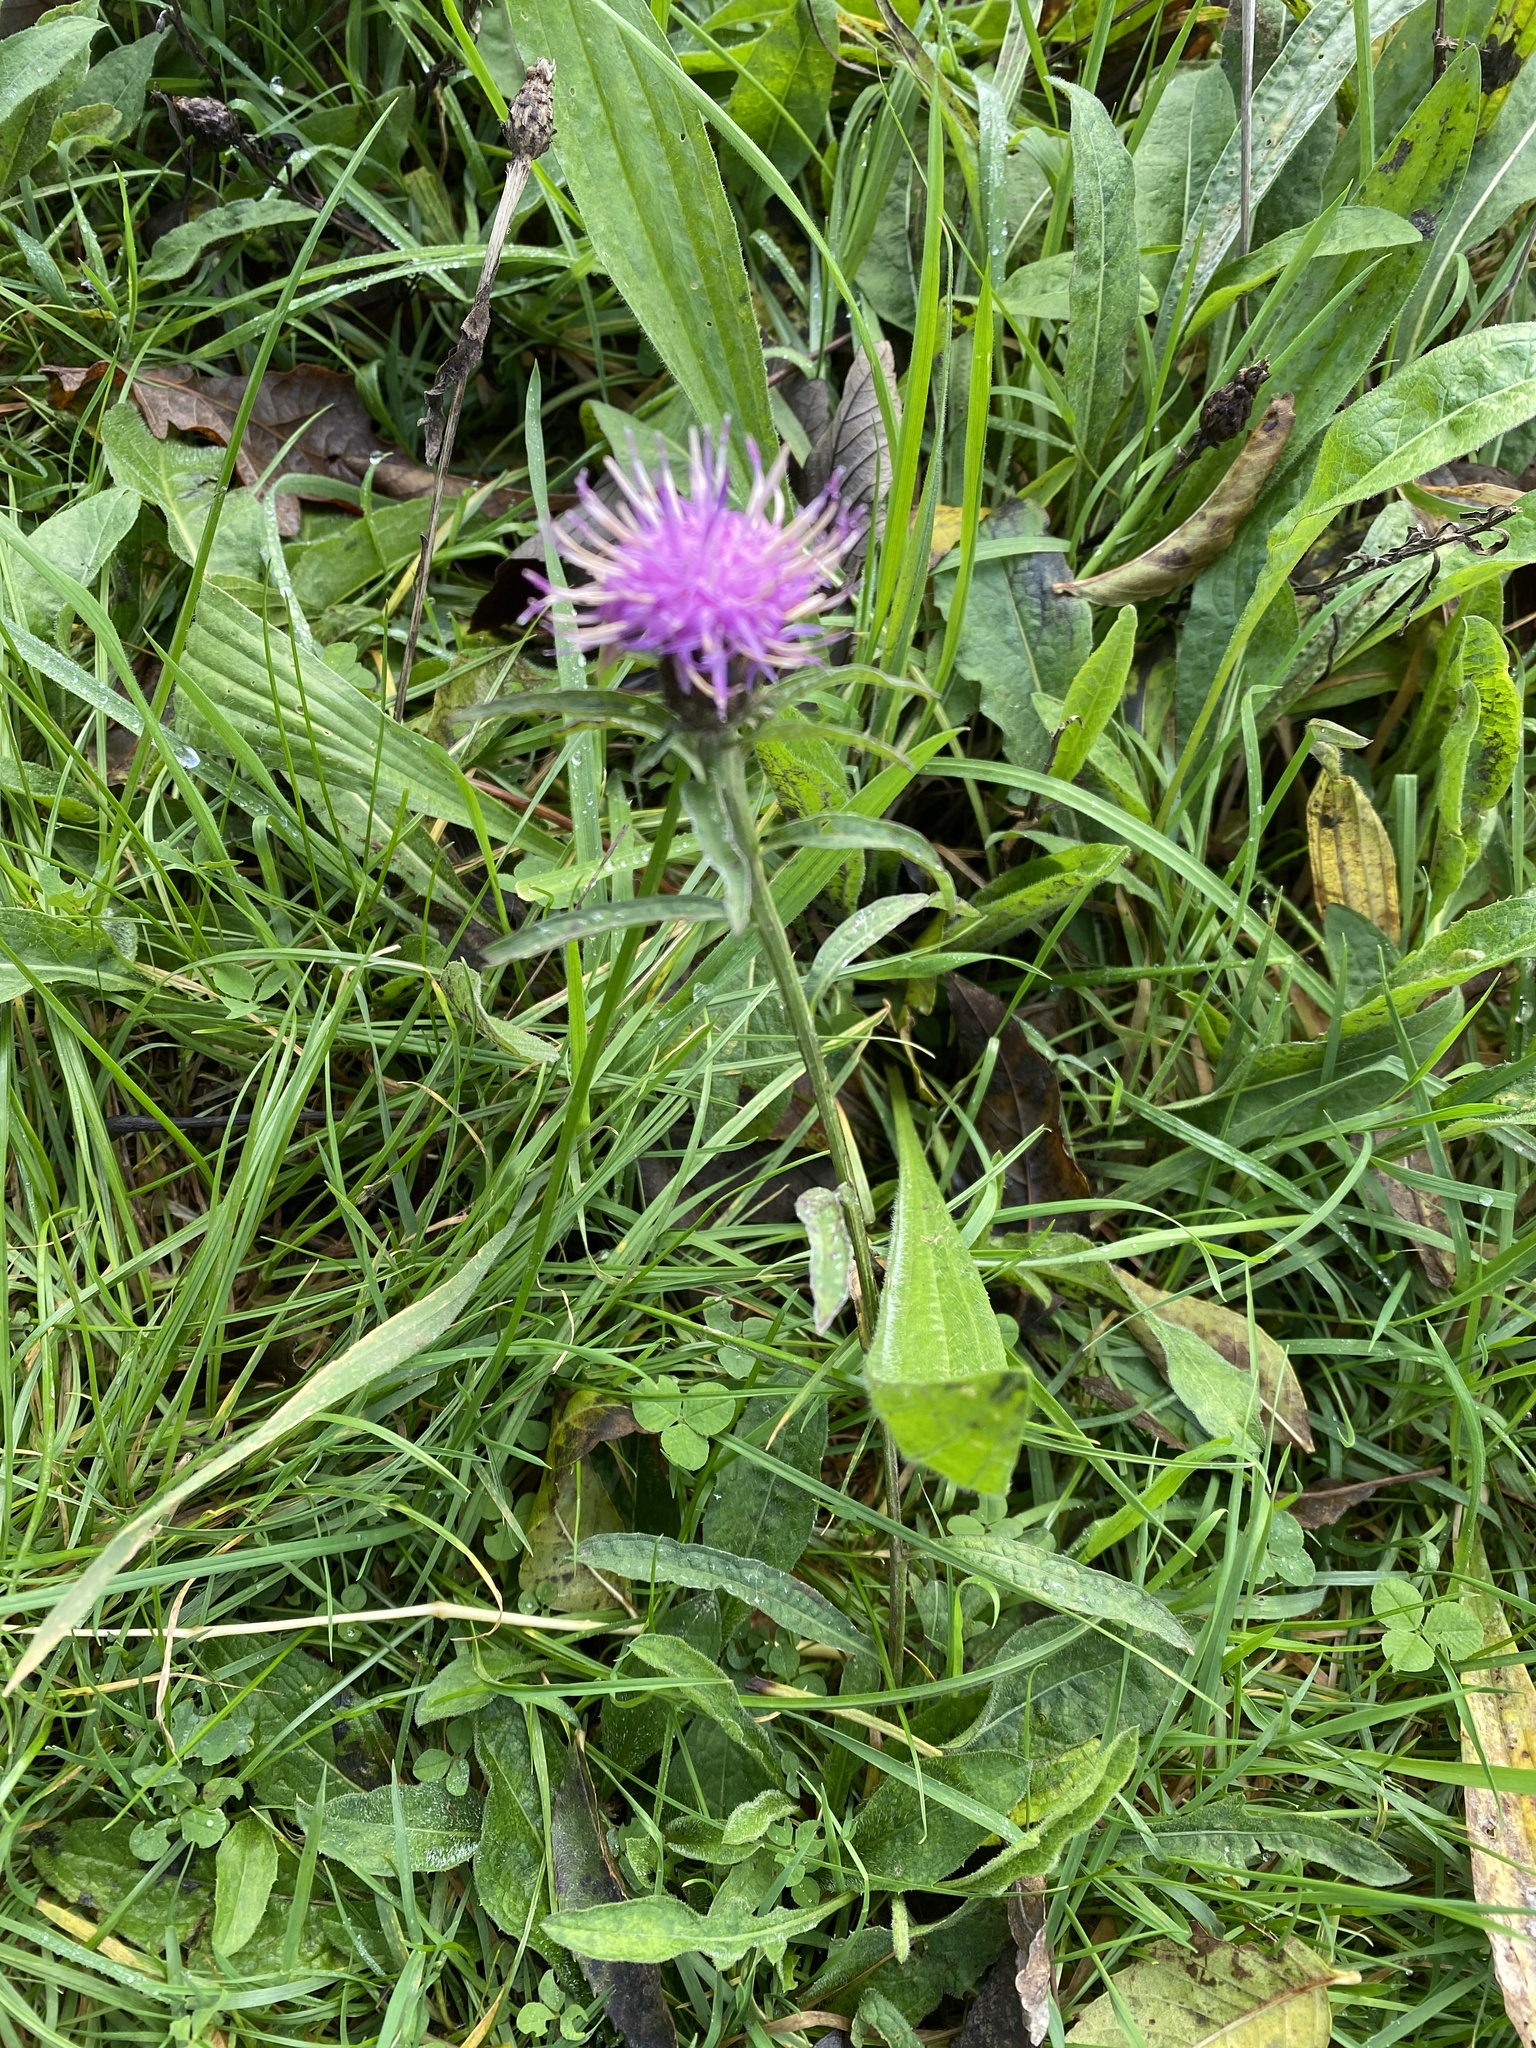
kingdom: Plantae
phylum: Tracheophyta
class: Magnoliopsida
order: Asterales
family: Asteraceae
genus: Centaurea
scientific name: Centaurea nigra
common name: Lesser knapweed
